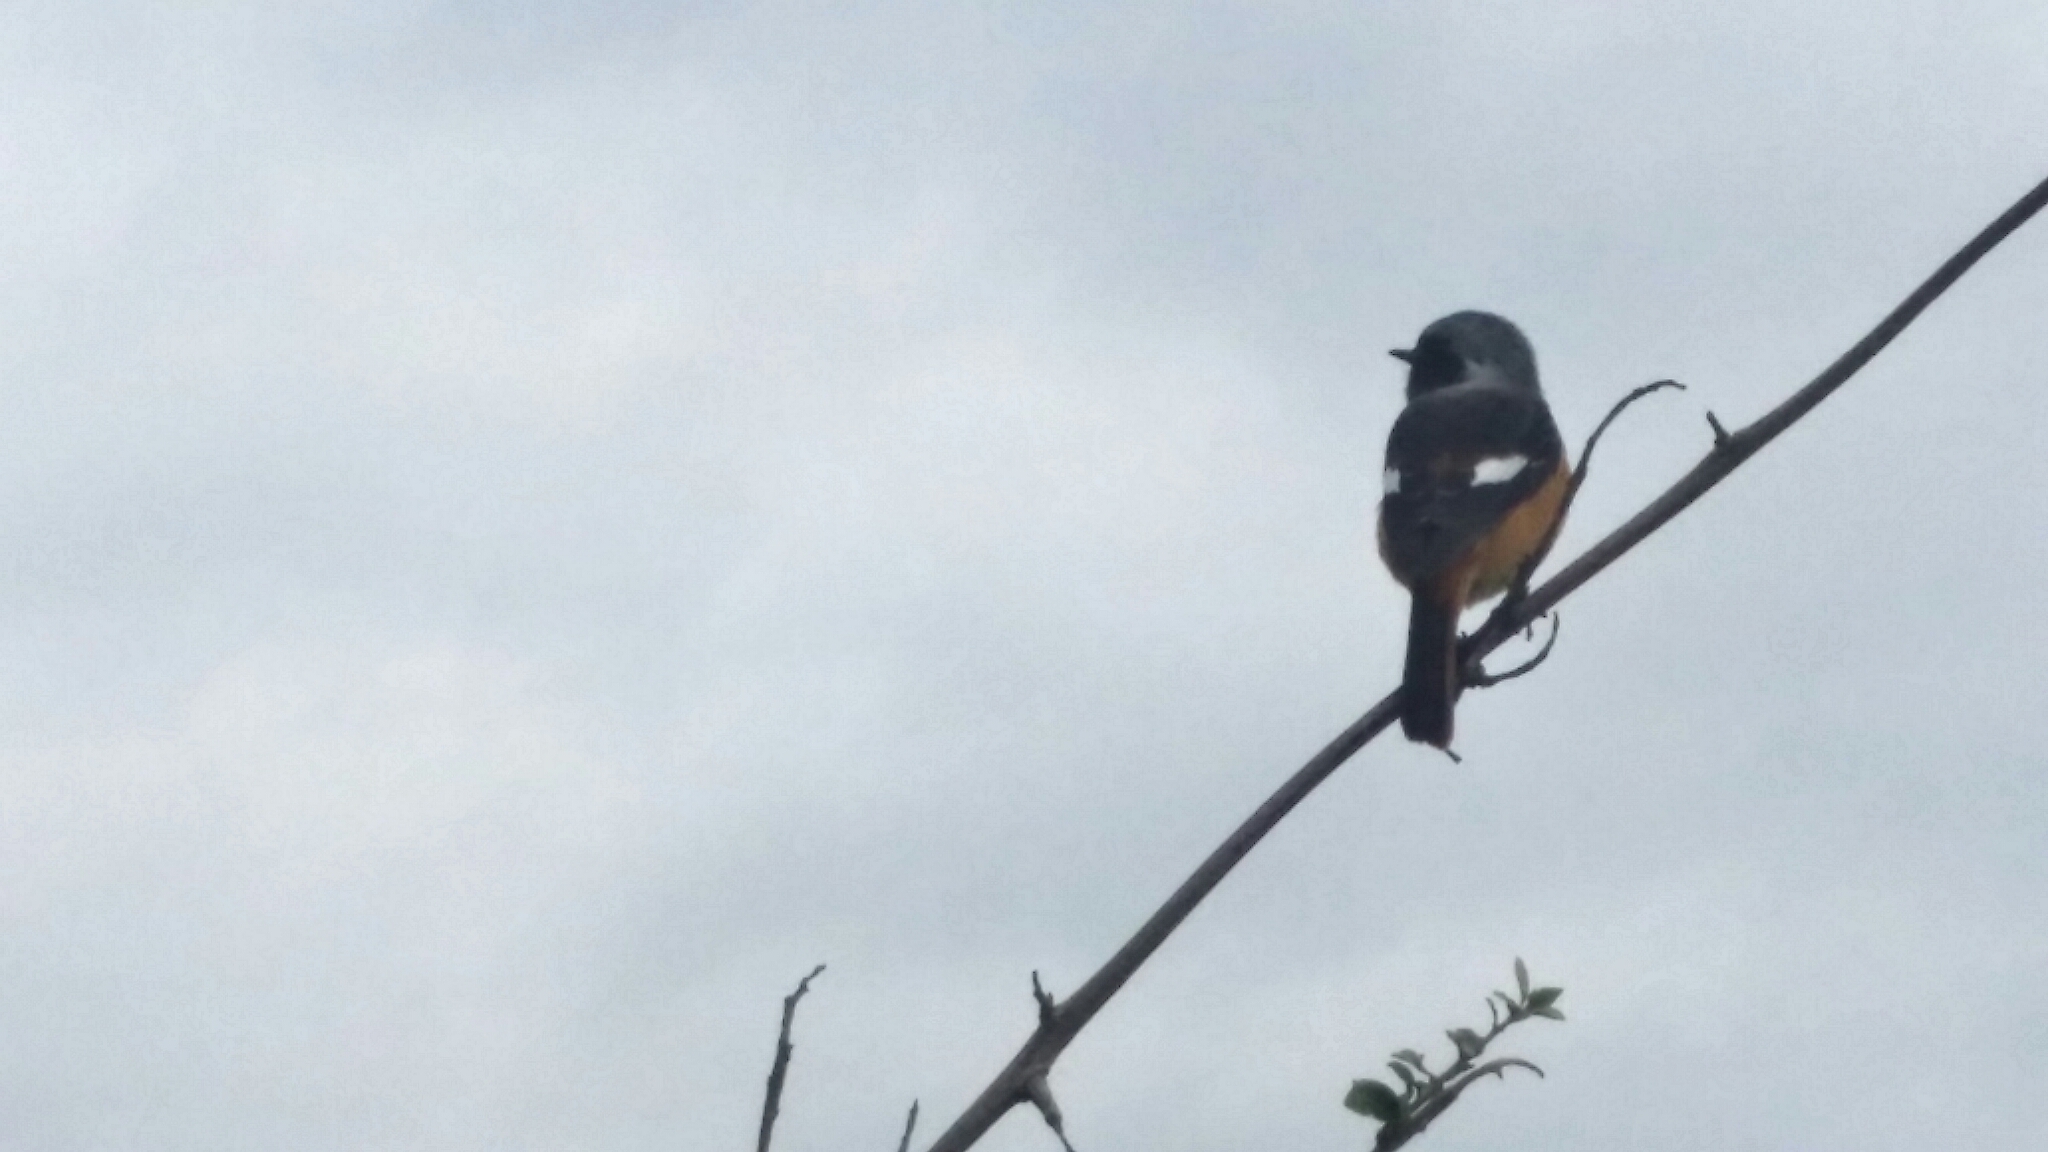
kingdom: Animalia
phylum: Chordata
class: Aves
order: Passeriformes
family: Muscicapidae
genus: Phoenicurus
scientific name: Phoenicurus auroreus
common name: Daurian redstart
